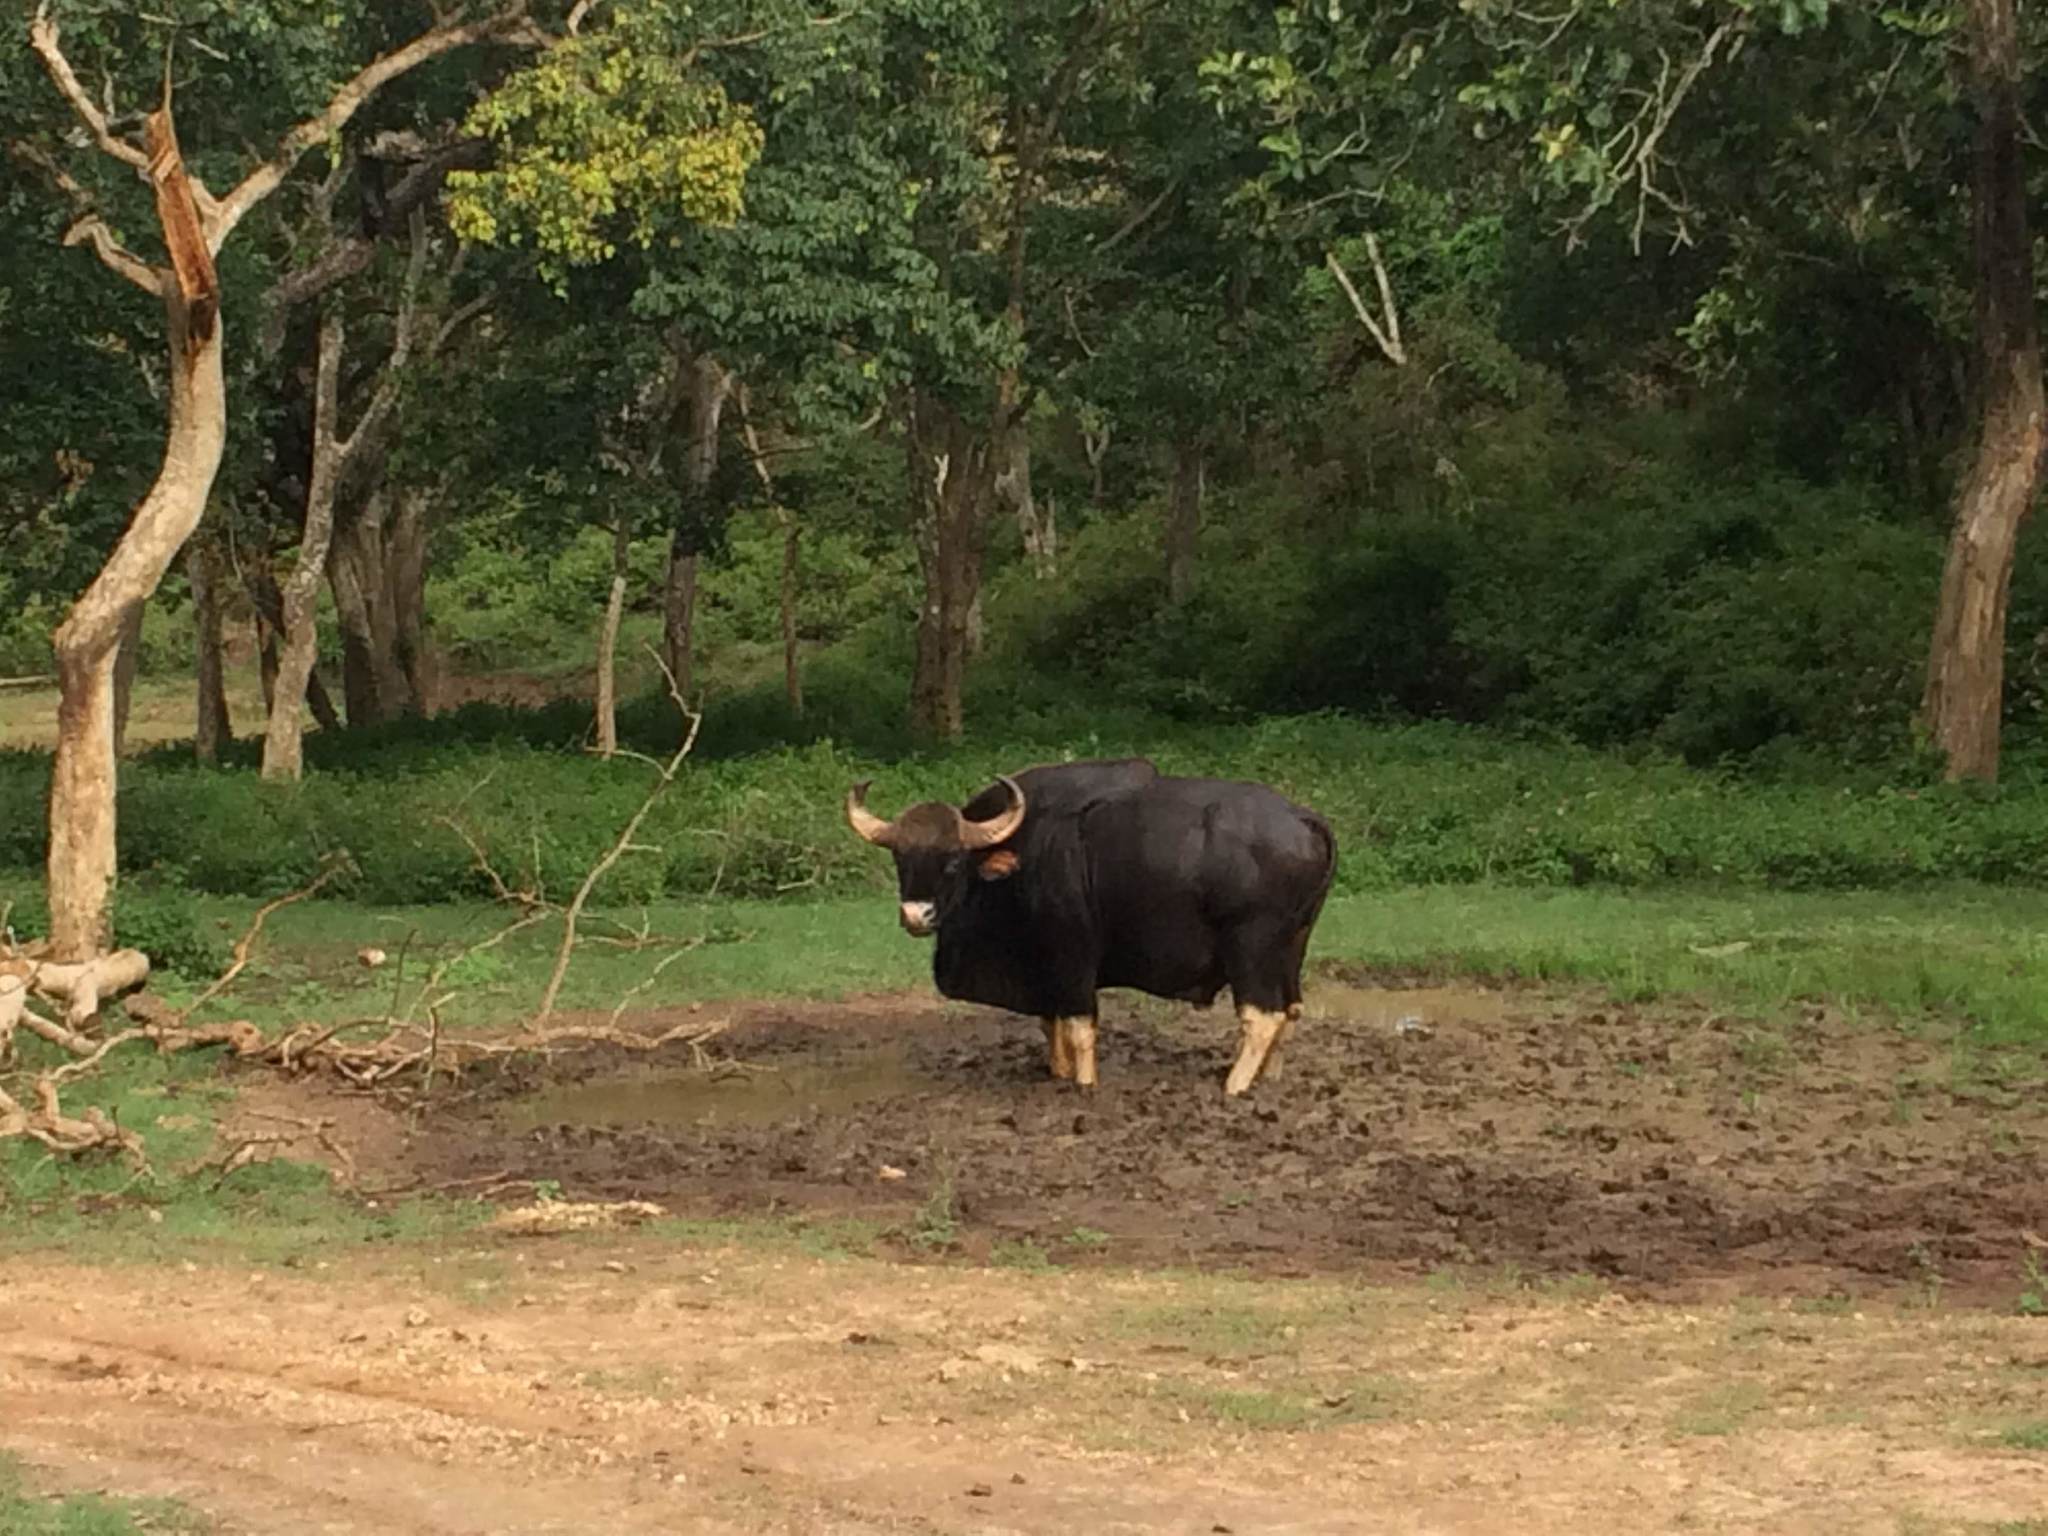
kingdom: Animalia
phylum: Chordata
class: Mammalia
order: Artiodactyla
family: Bovidae
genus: Bos
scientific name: Bos frontalis
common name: Gaur
